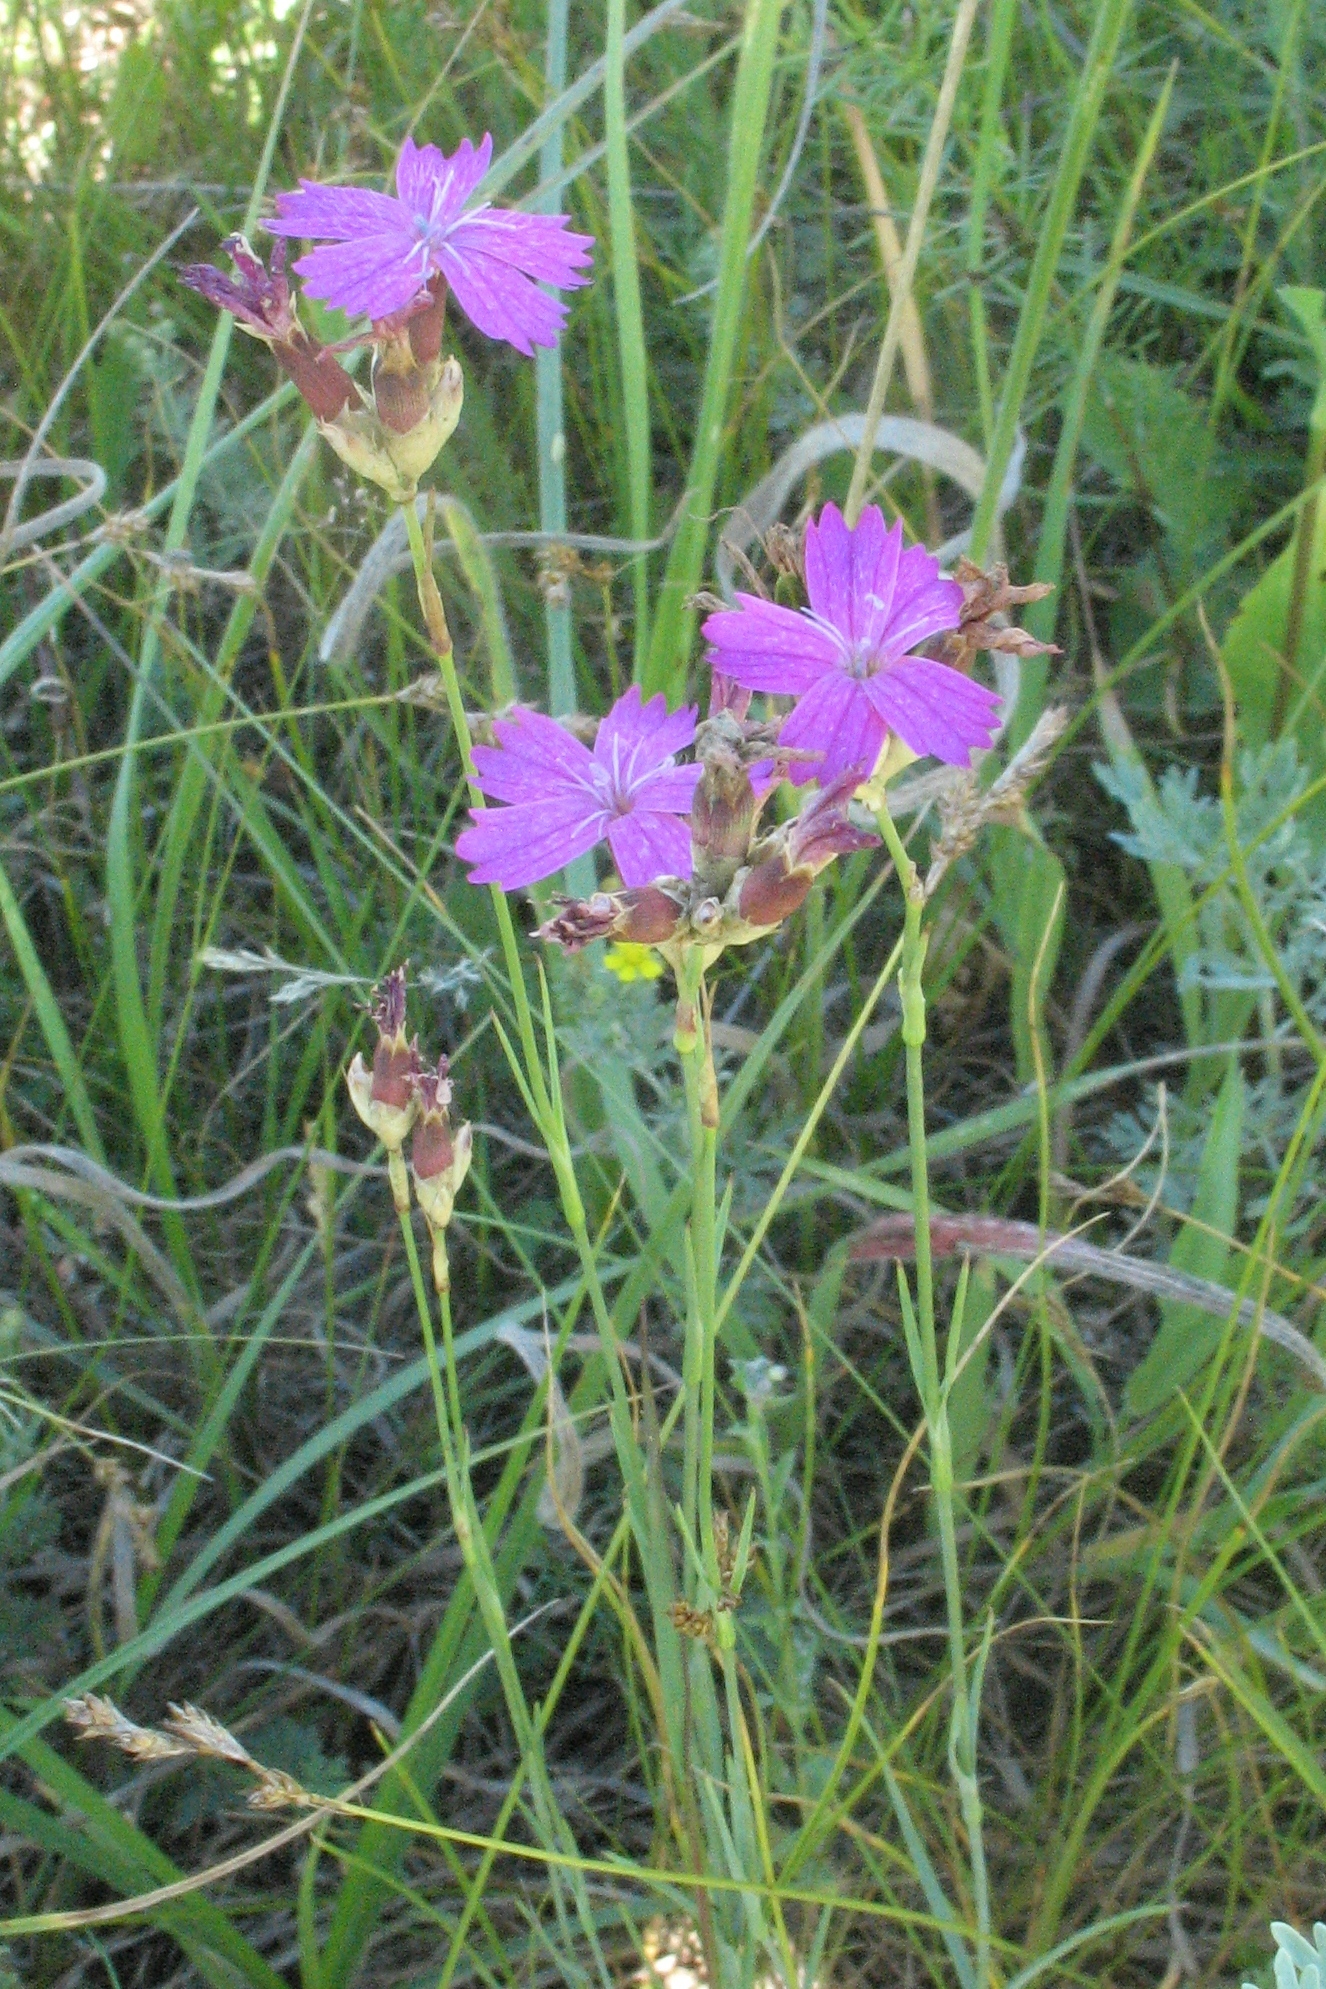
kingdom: Plantae
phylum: Tracheophyta
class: Magnoliopsida
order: Caryophyllales
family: Caryophyllaceae
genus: Dianthus
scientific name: Dianthus borbasii
